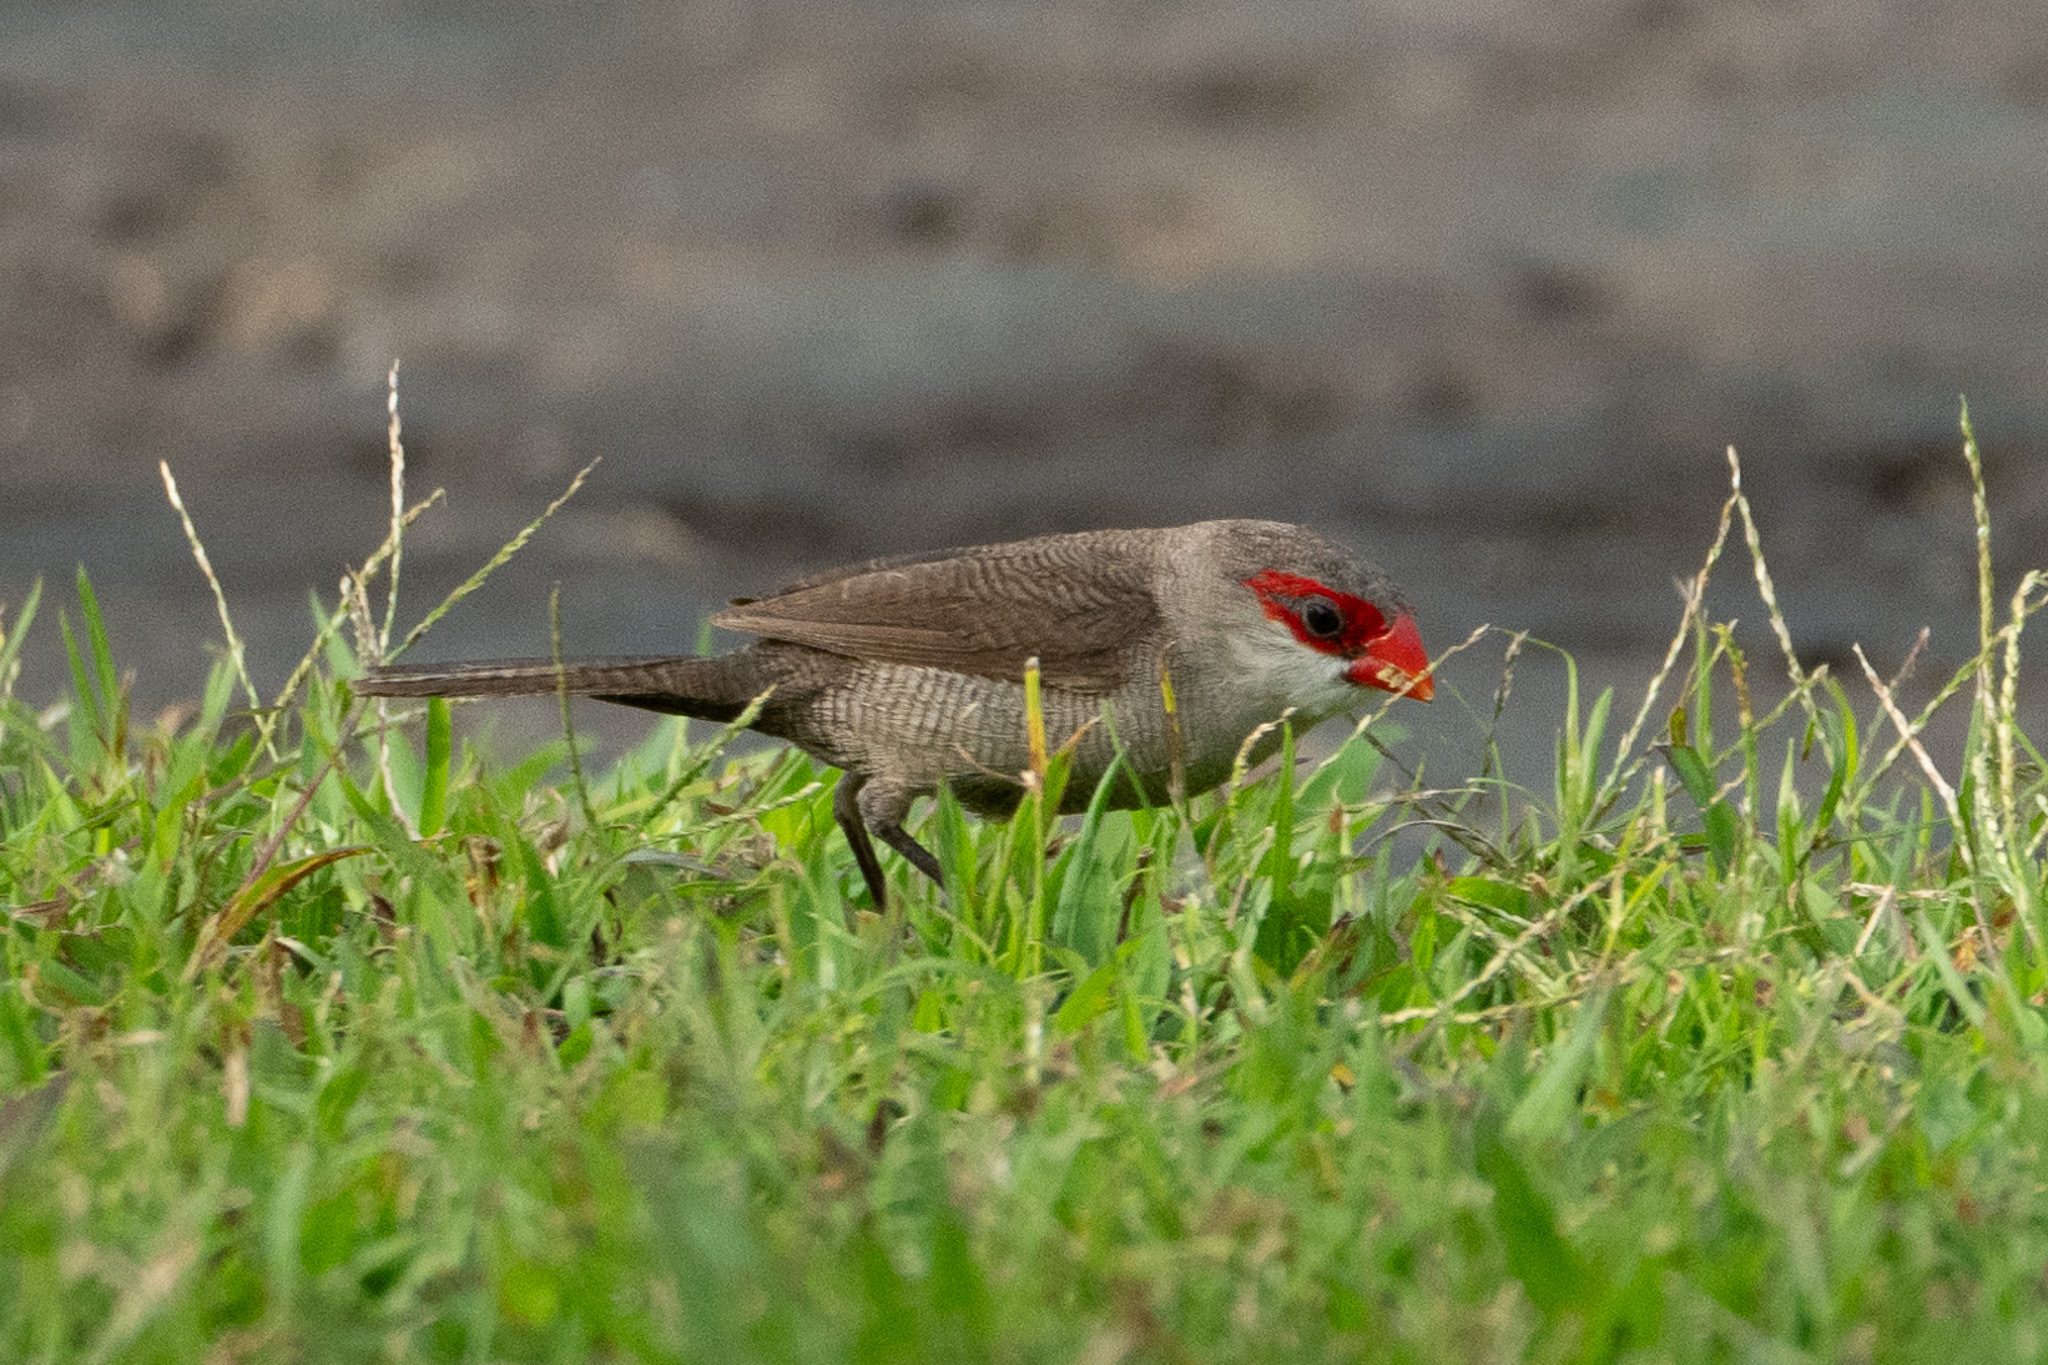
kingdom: Animalia
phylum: Chordata
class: Aves
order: Passeriformes
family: Estrildidae
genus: Estrilda
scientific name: Estrilda astrild
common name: Common waxbill
